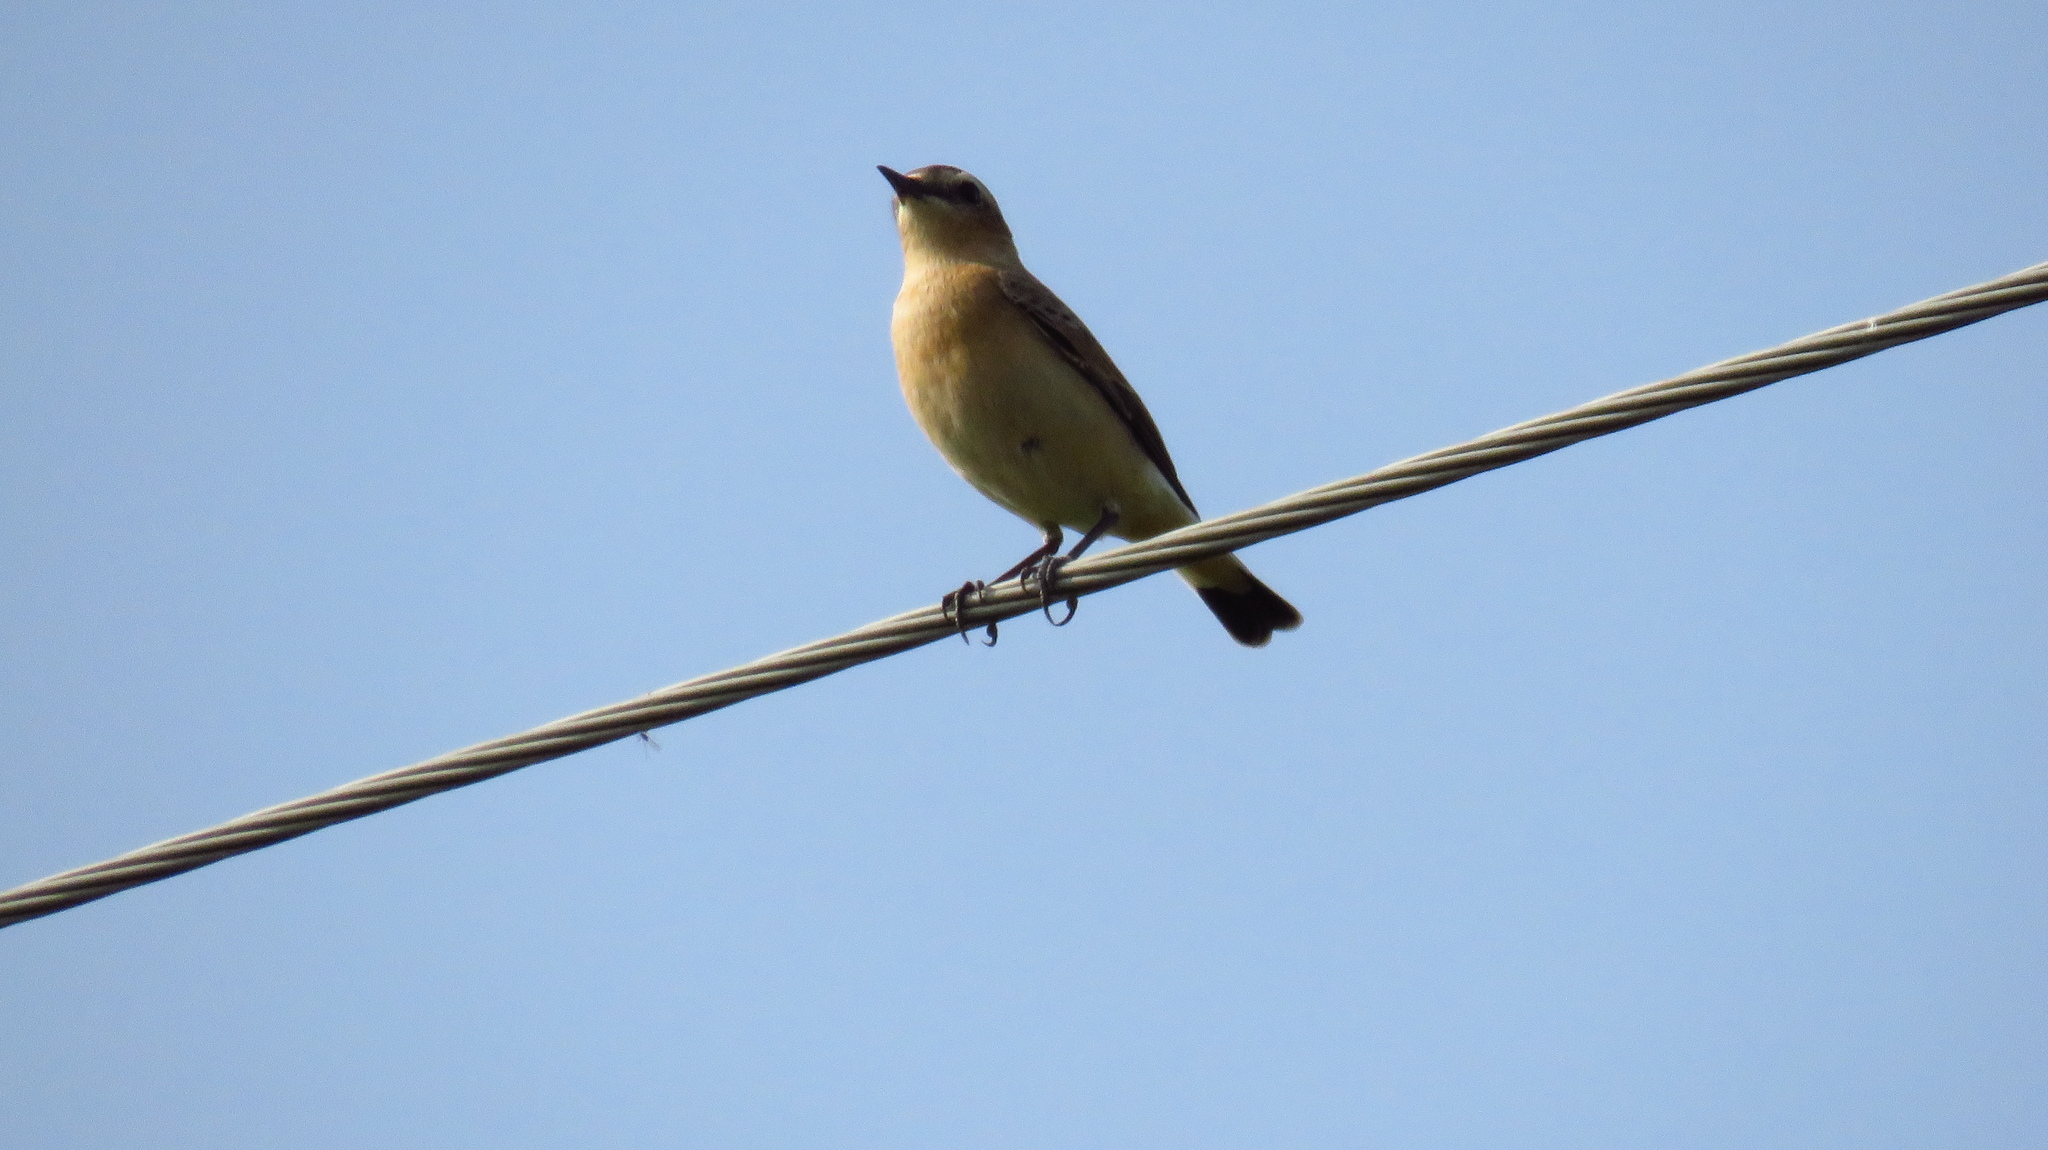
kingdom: Animalia
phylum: Chordata
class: Aves
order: Passeriformes
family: Muscicapidae
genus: Oenanthe
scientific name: Oenanthe oenanthe
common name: Northern wheatear
